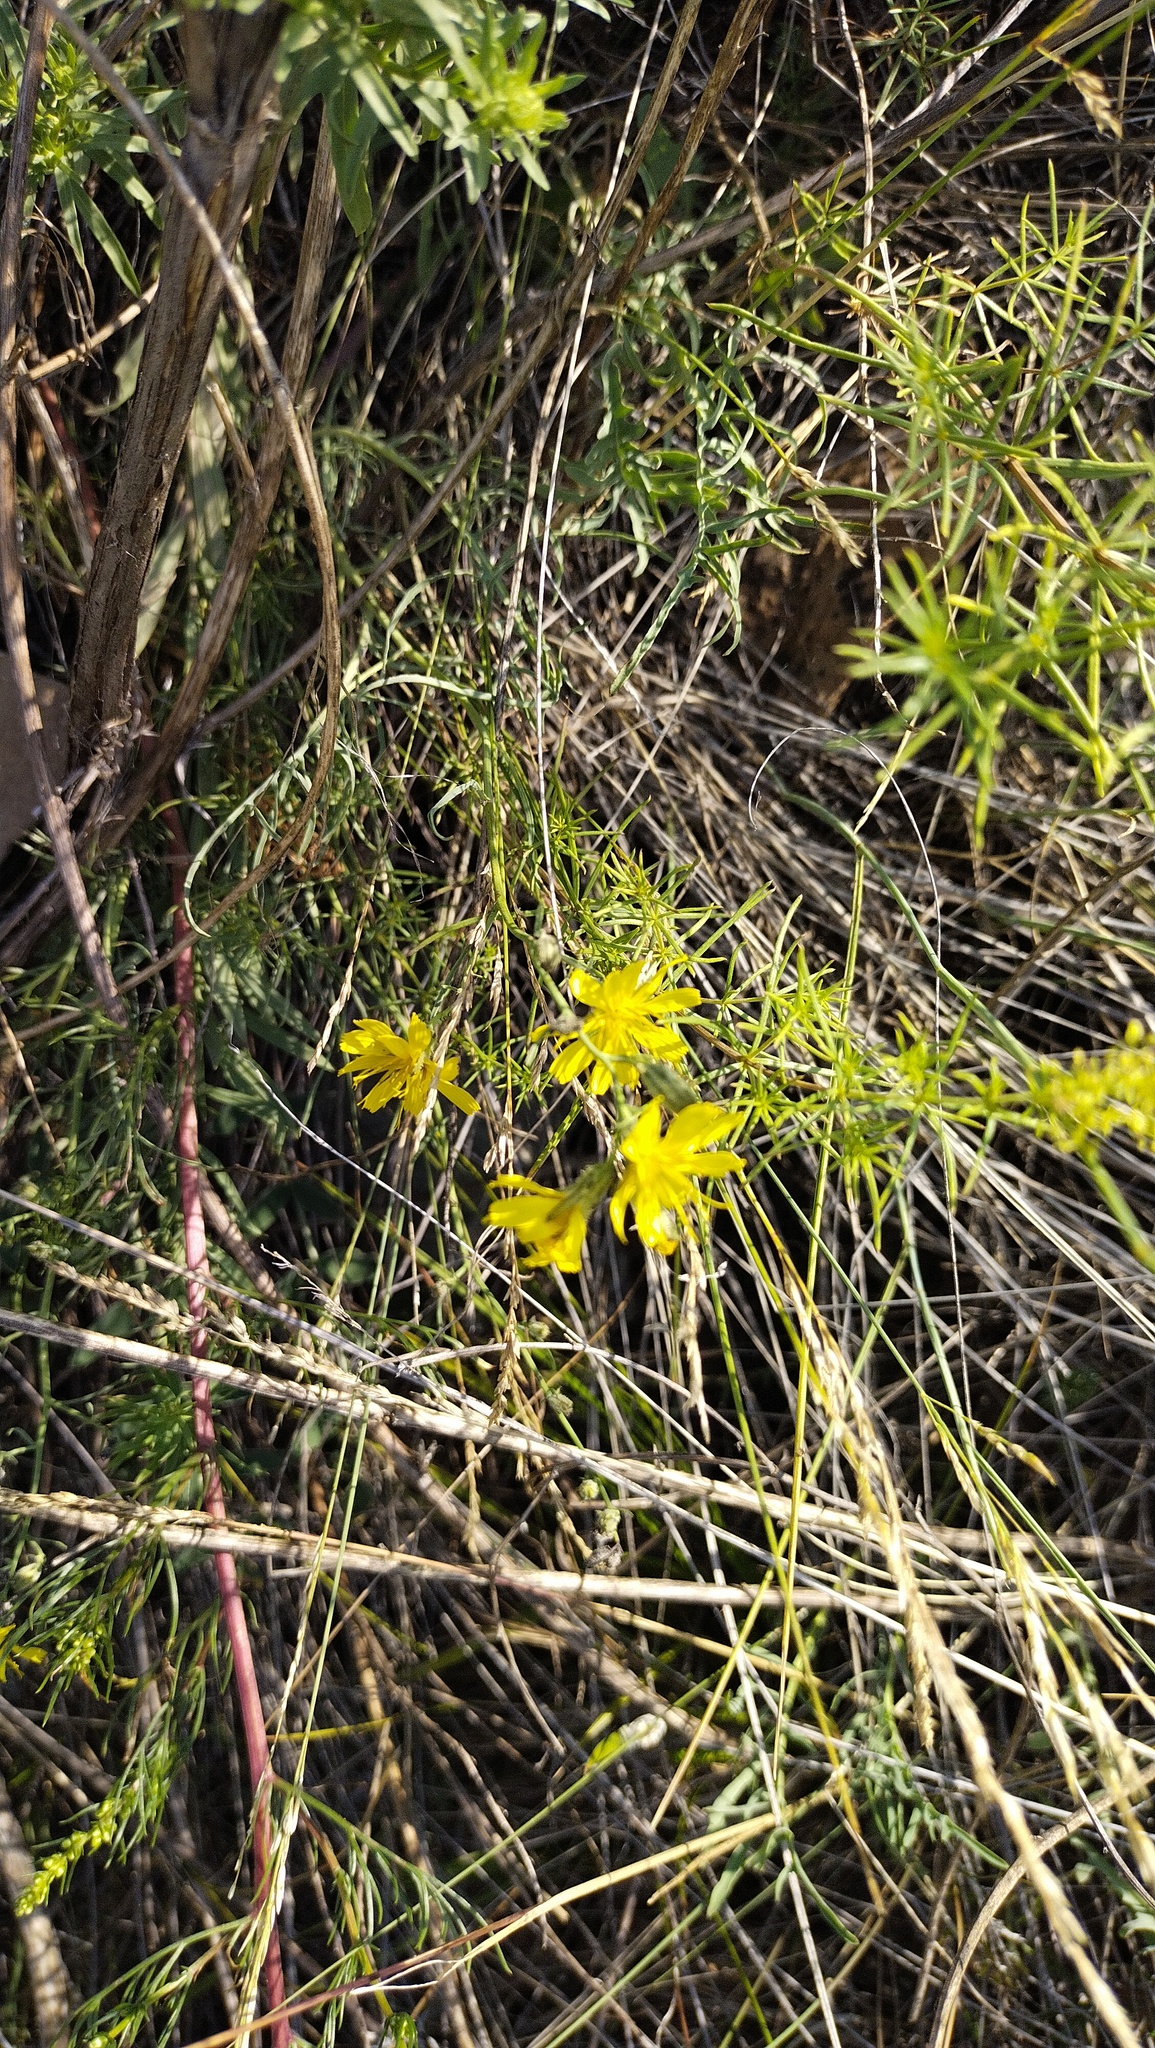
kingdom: Plantae
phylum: Tracheophyta
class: Magnoliopsida
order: Asterales
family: Asteraceae
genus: Crepidiastrum
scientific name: Crepidiastrum tenuifolium
